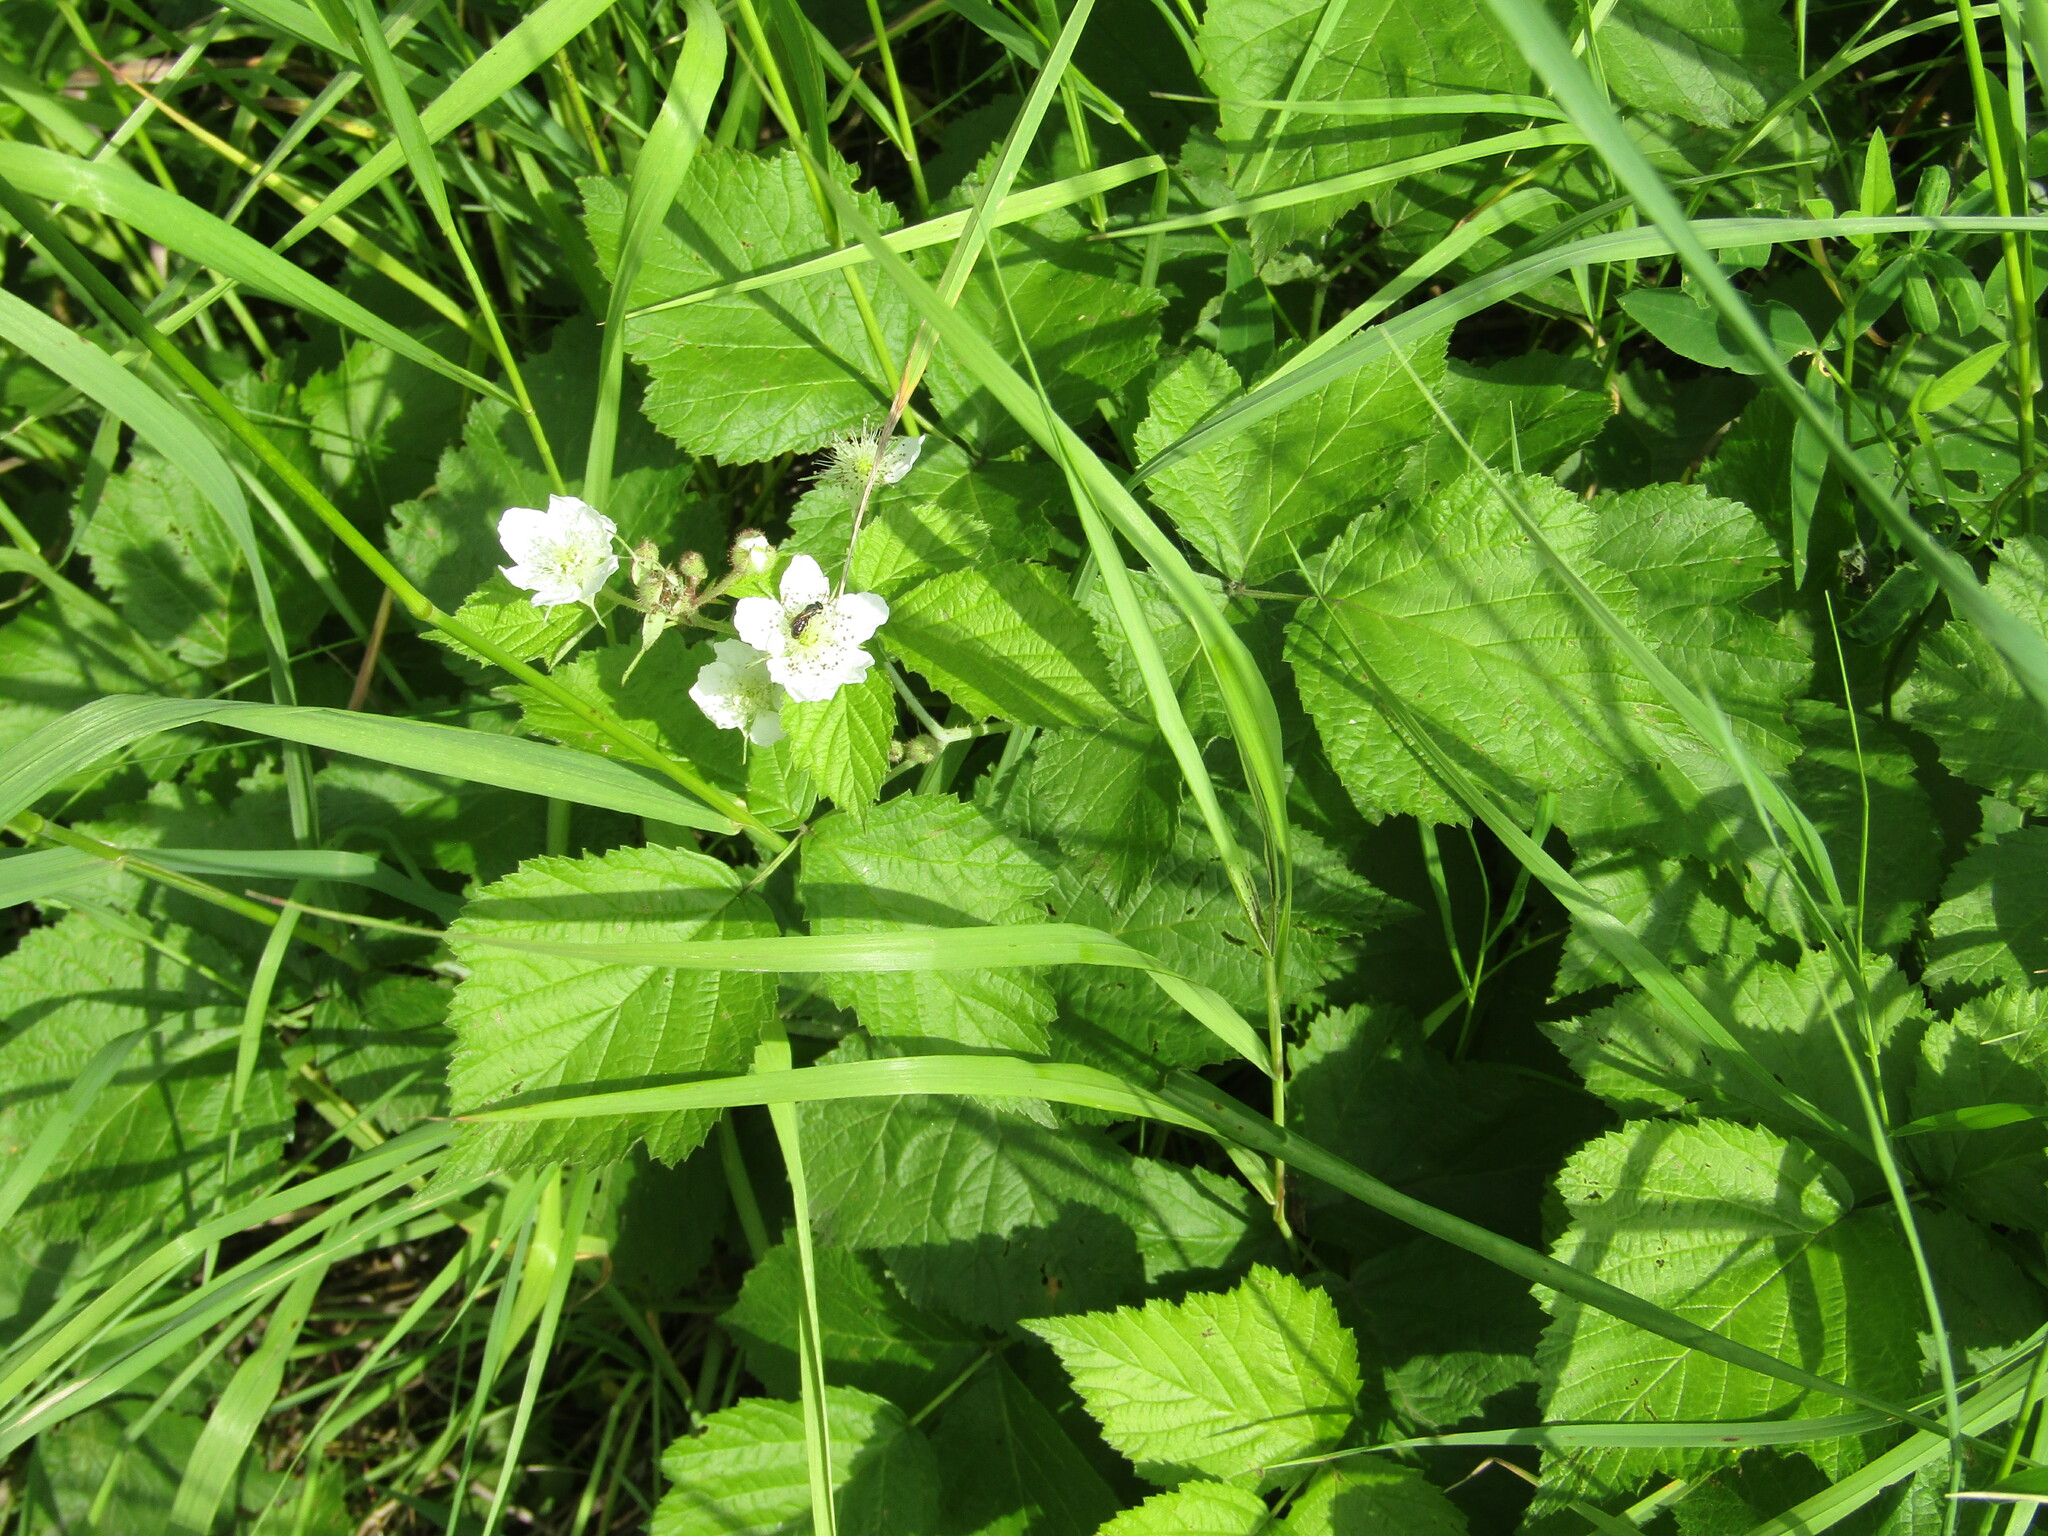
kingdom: Plantae
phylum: Tracheophyta
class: Magnoliopsida
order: Rosales
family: Rosaceae
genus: Rubus
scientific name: Rubus caesius
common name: Dewberry
